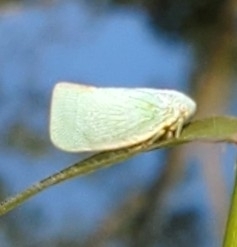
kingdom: Animalia
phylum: Arthropoda
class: Insecta
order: Hemiptera
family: Flatidae
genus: Flatormenis
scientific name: Flatormenis proxima
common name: Northern flatid planthopper
